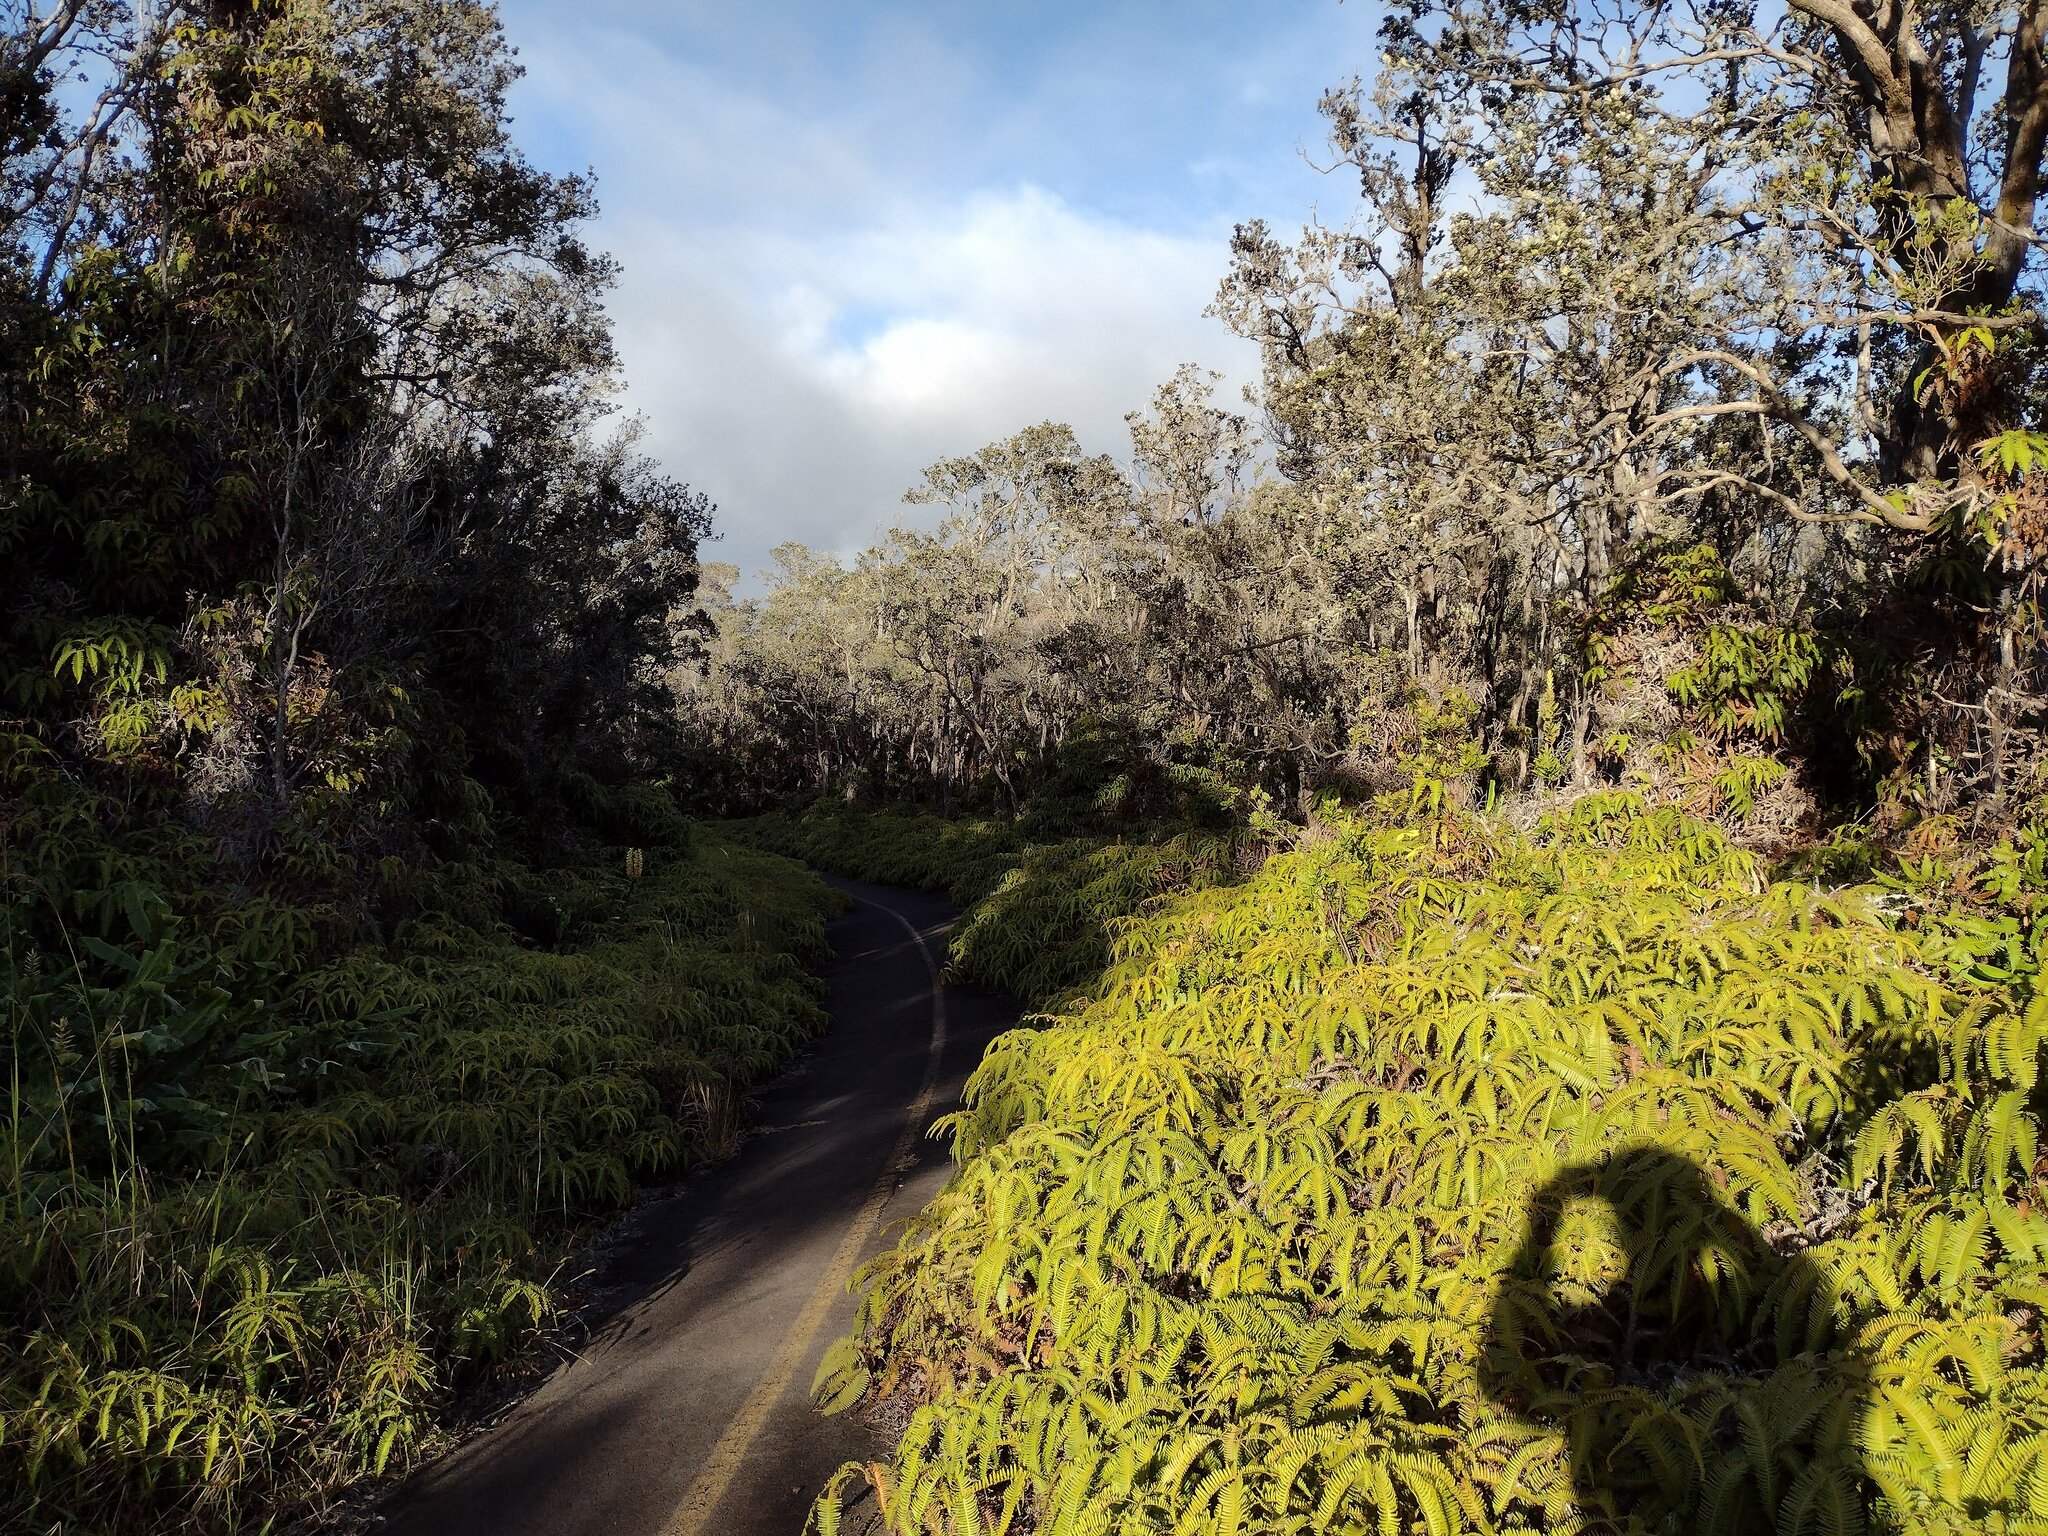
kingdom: Plantae
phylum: Tracheophyta
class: Polypodiopsida
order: Gleicheniales
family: Gleicheniaceae
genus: Dicranopteris
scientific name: Dicranopteris linearis
